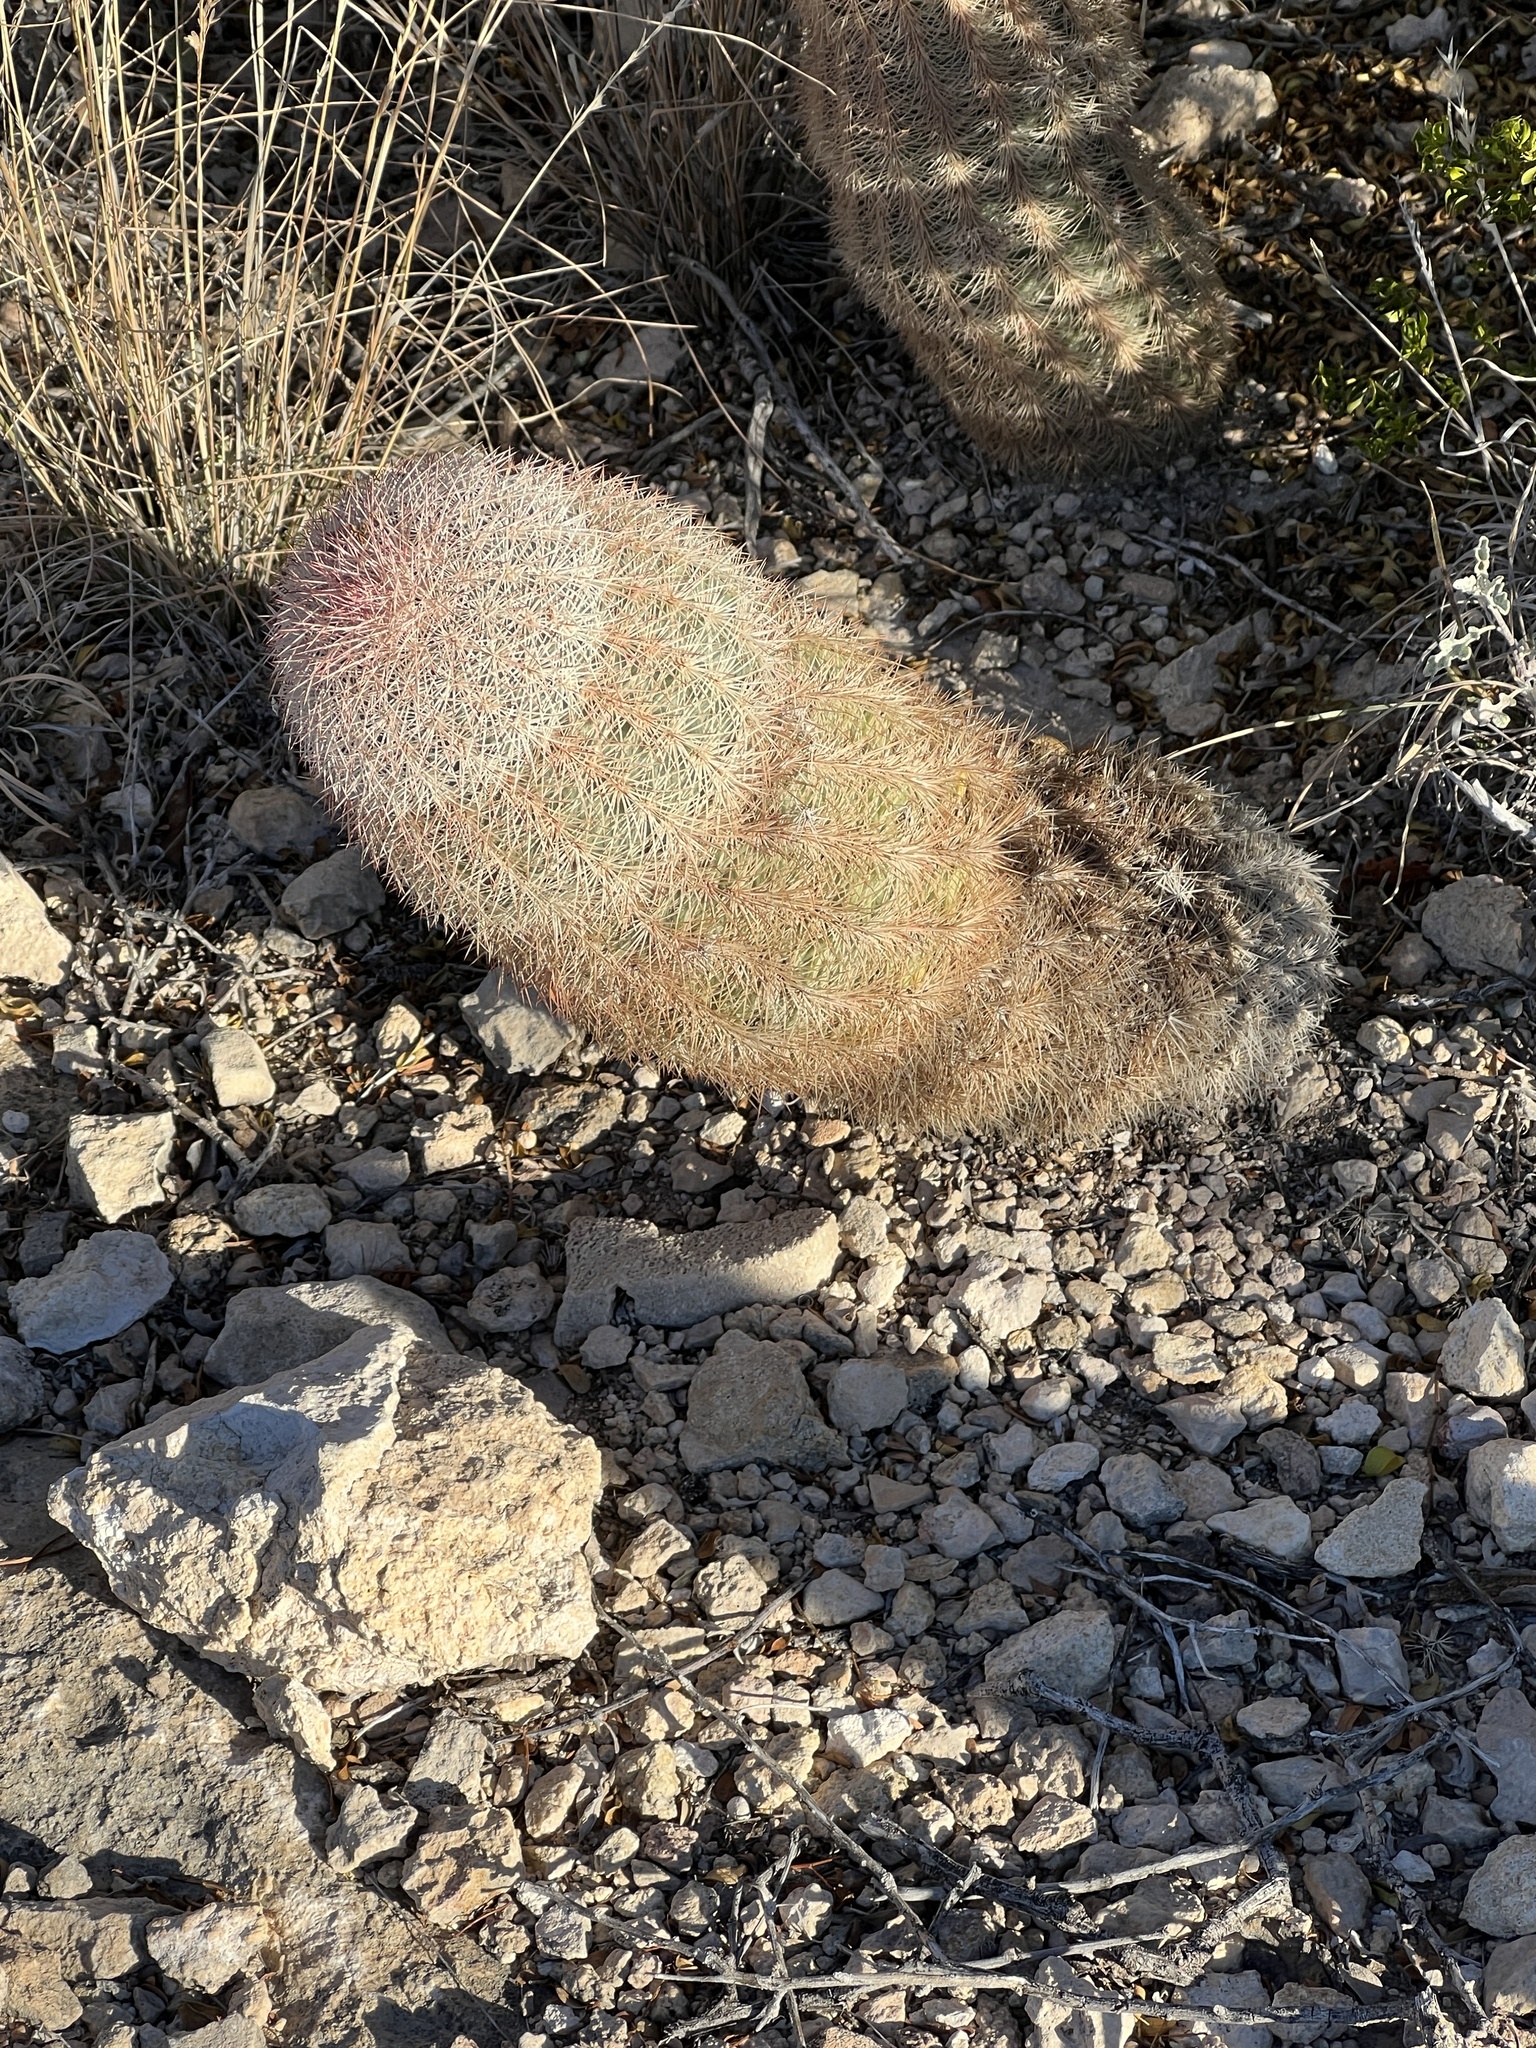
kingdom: Plantae
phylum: Tracheophyta
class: Magnoliopsida
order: Caryophyllales
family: Cactaceae
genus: Echinocereus
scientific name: Echinocereus dasyacanthus
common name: Spiny hedgehog cactus
